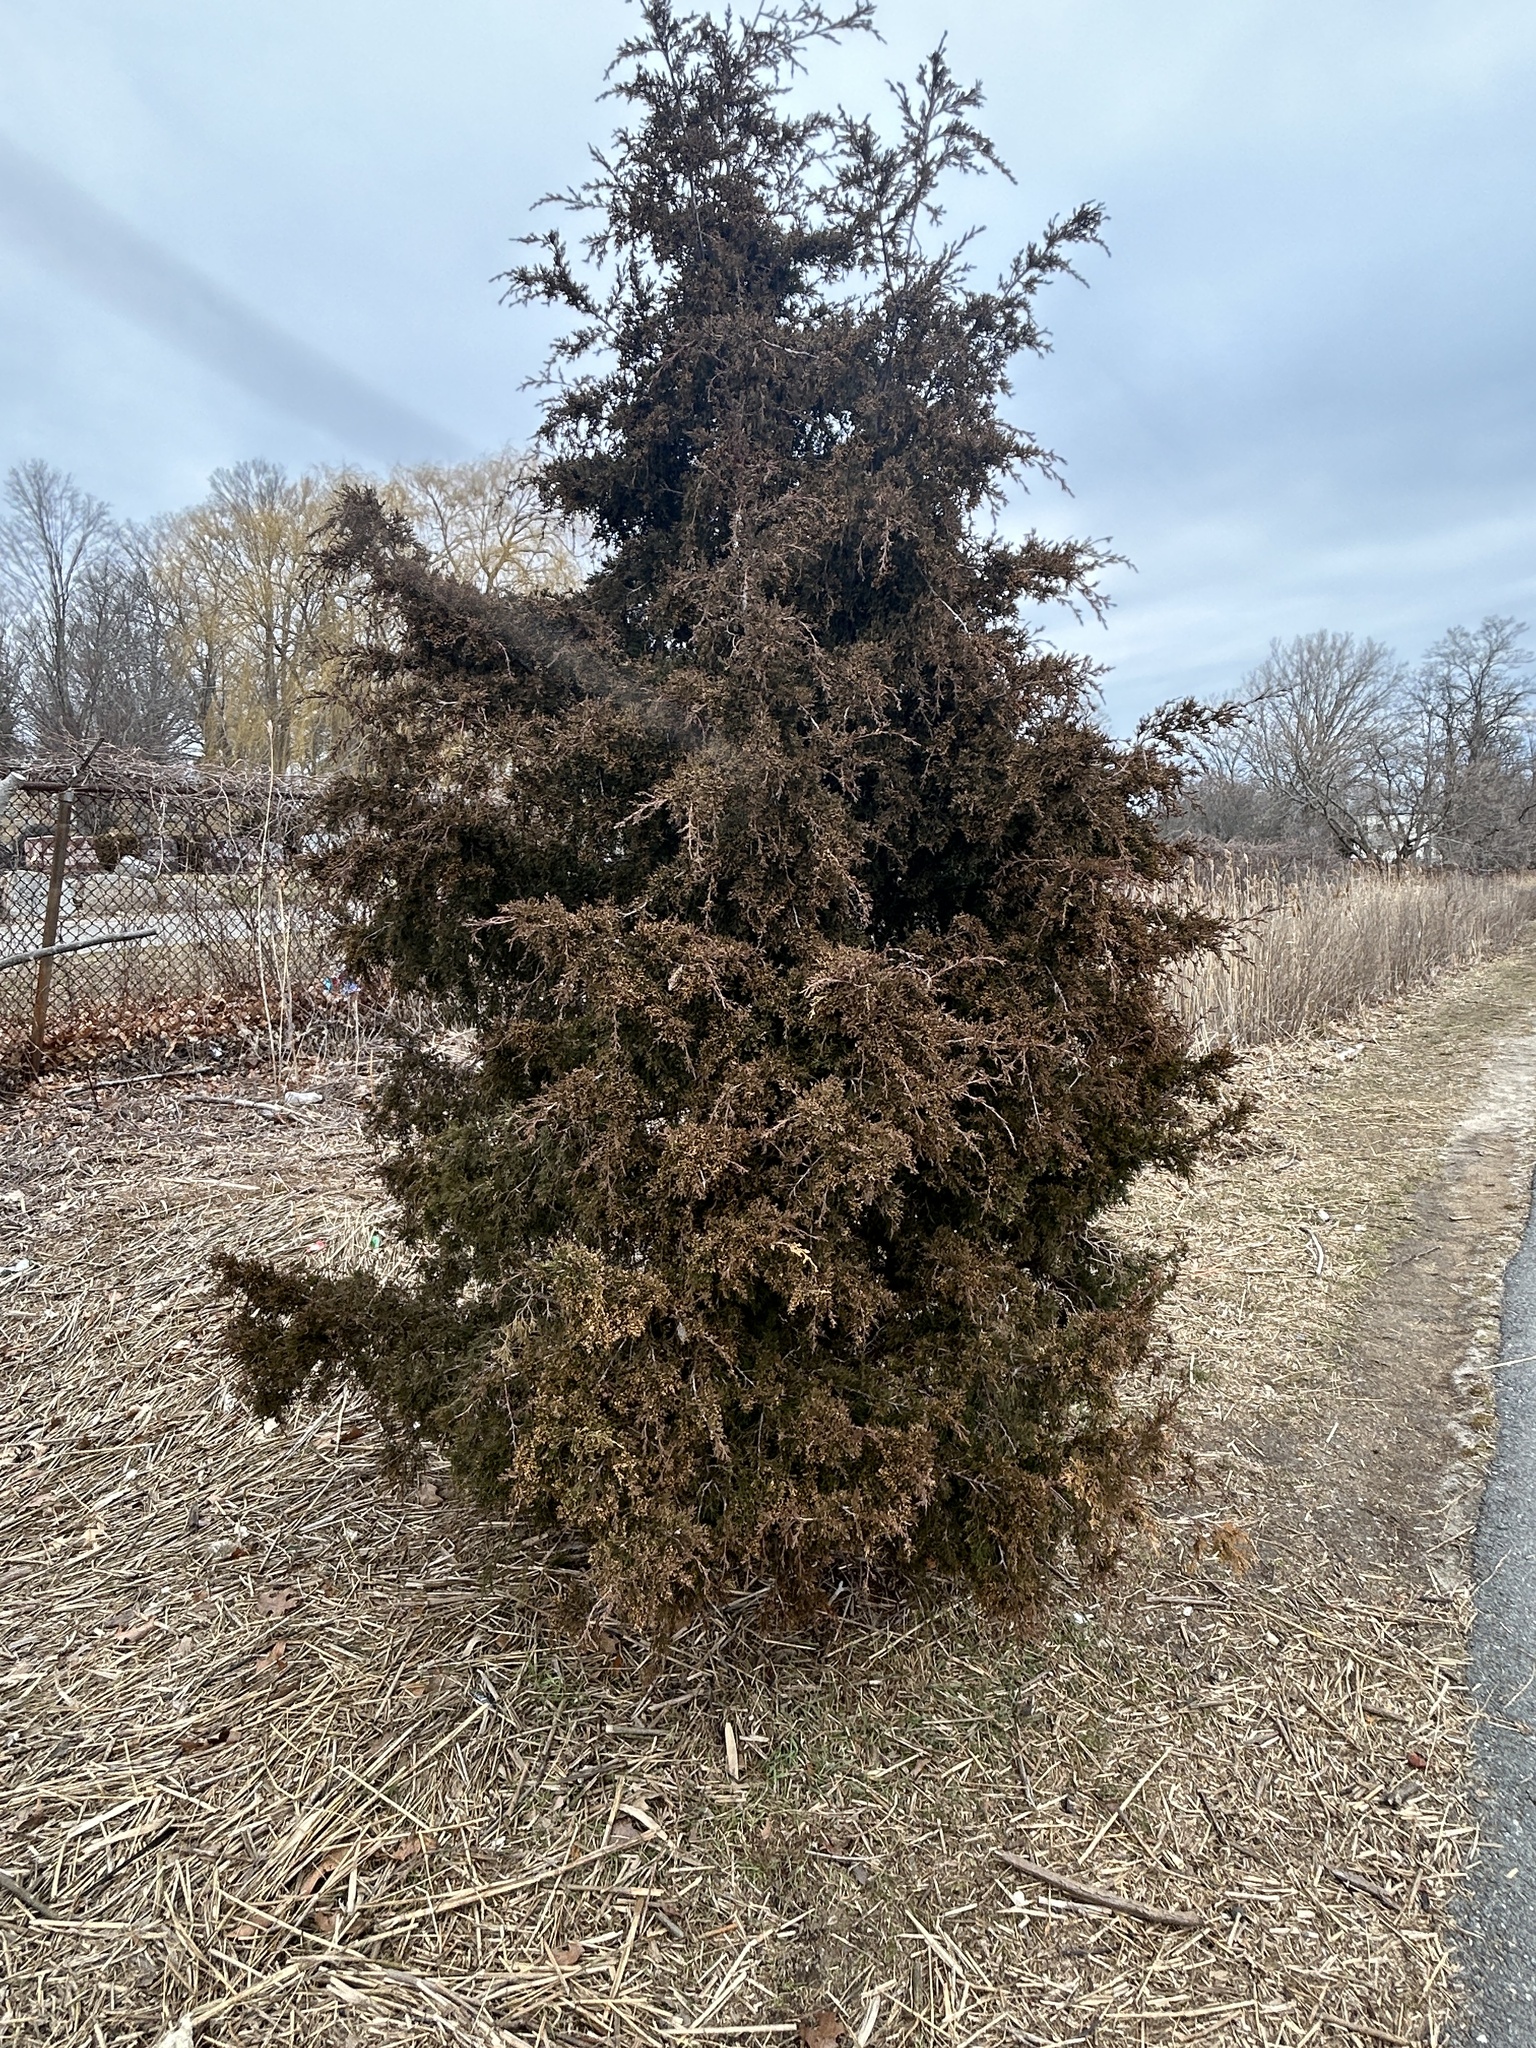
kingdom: Plantae
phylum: Tracheophyta
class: Pinopsida
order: Pinales
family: Cupressaceae
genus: Juniperus
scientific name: Juniperus virginiana
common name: Red juniper
